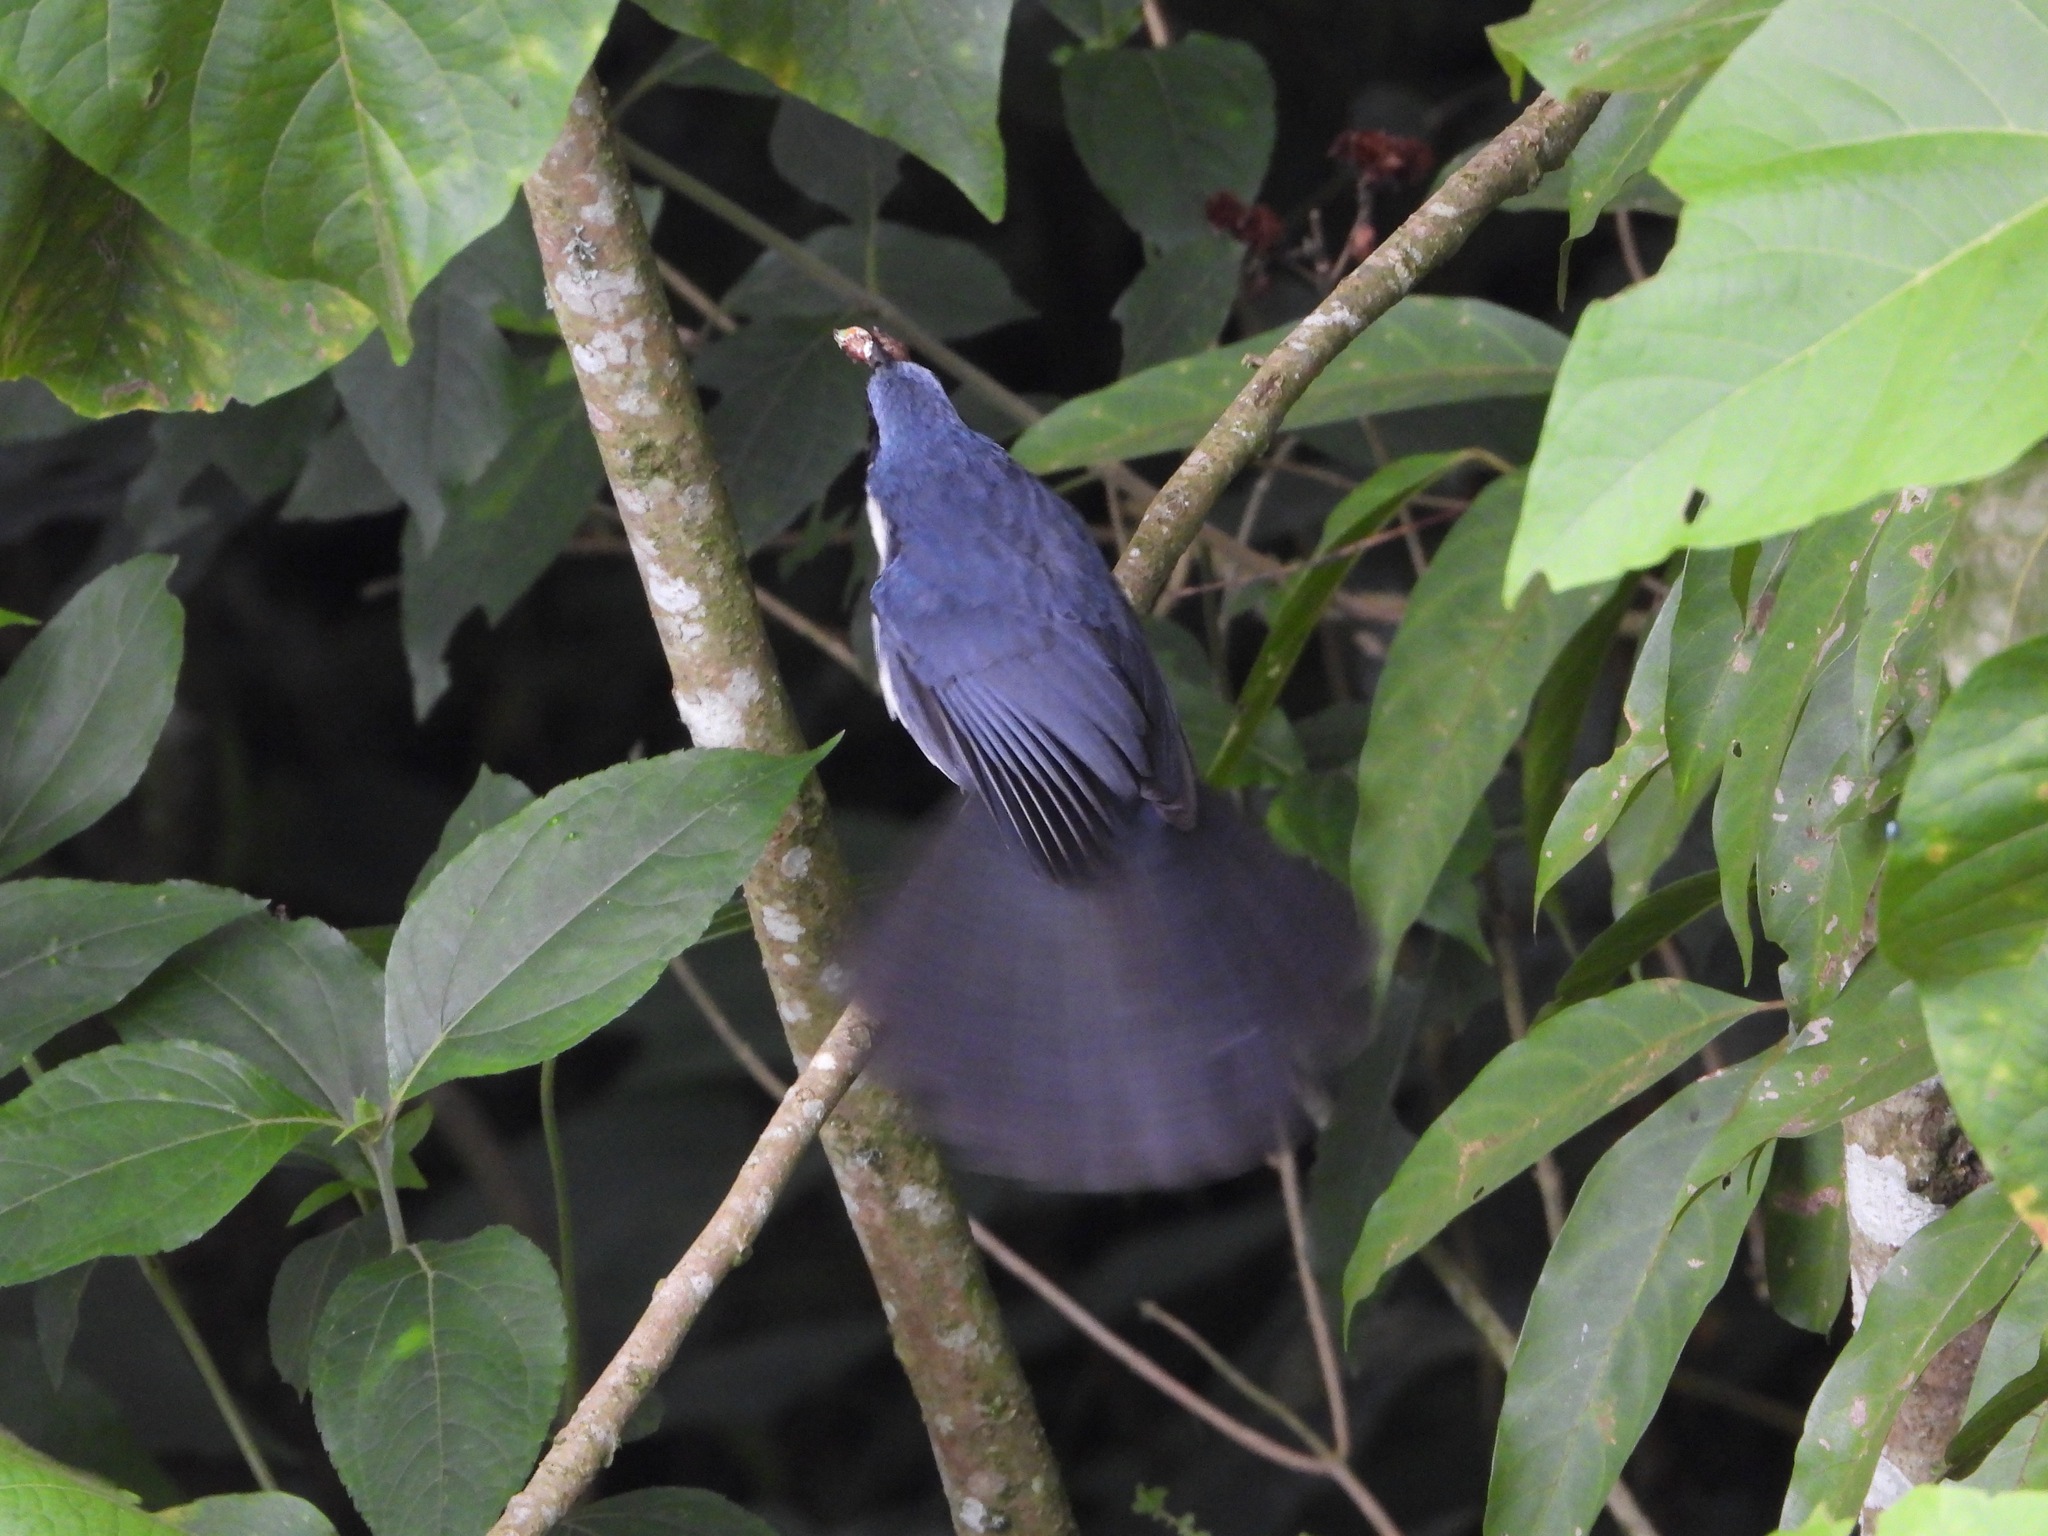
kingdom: Animalia
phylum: Chordata
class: Aves
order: Passeriformes
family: Mimidae
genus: Melanotis
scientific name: Melanotis hypoleucus
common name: Blue-and-white mockingbird
